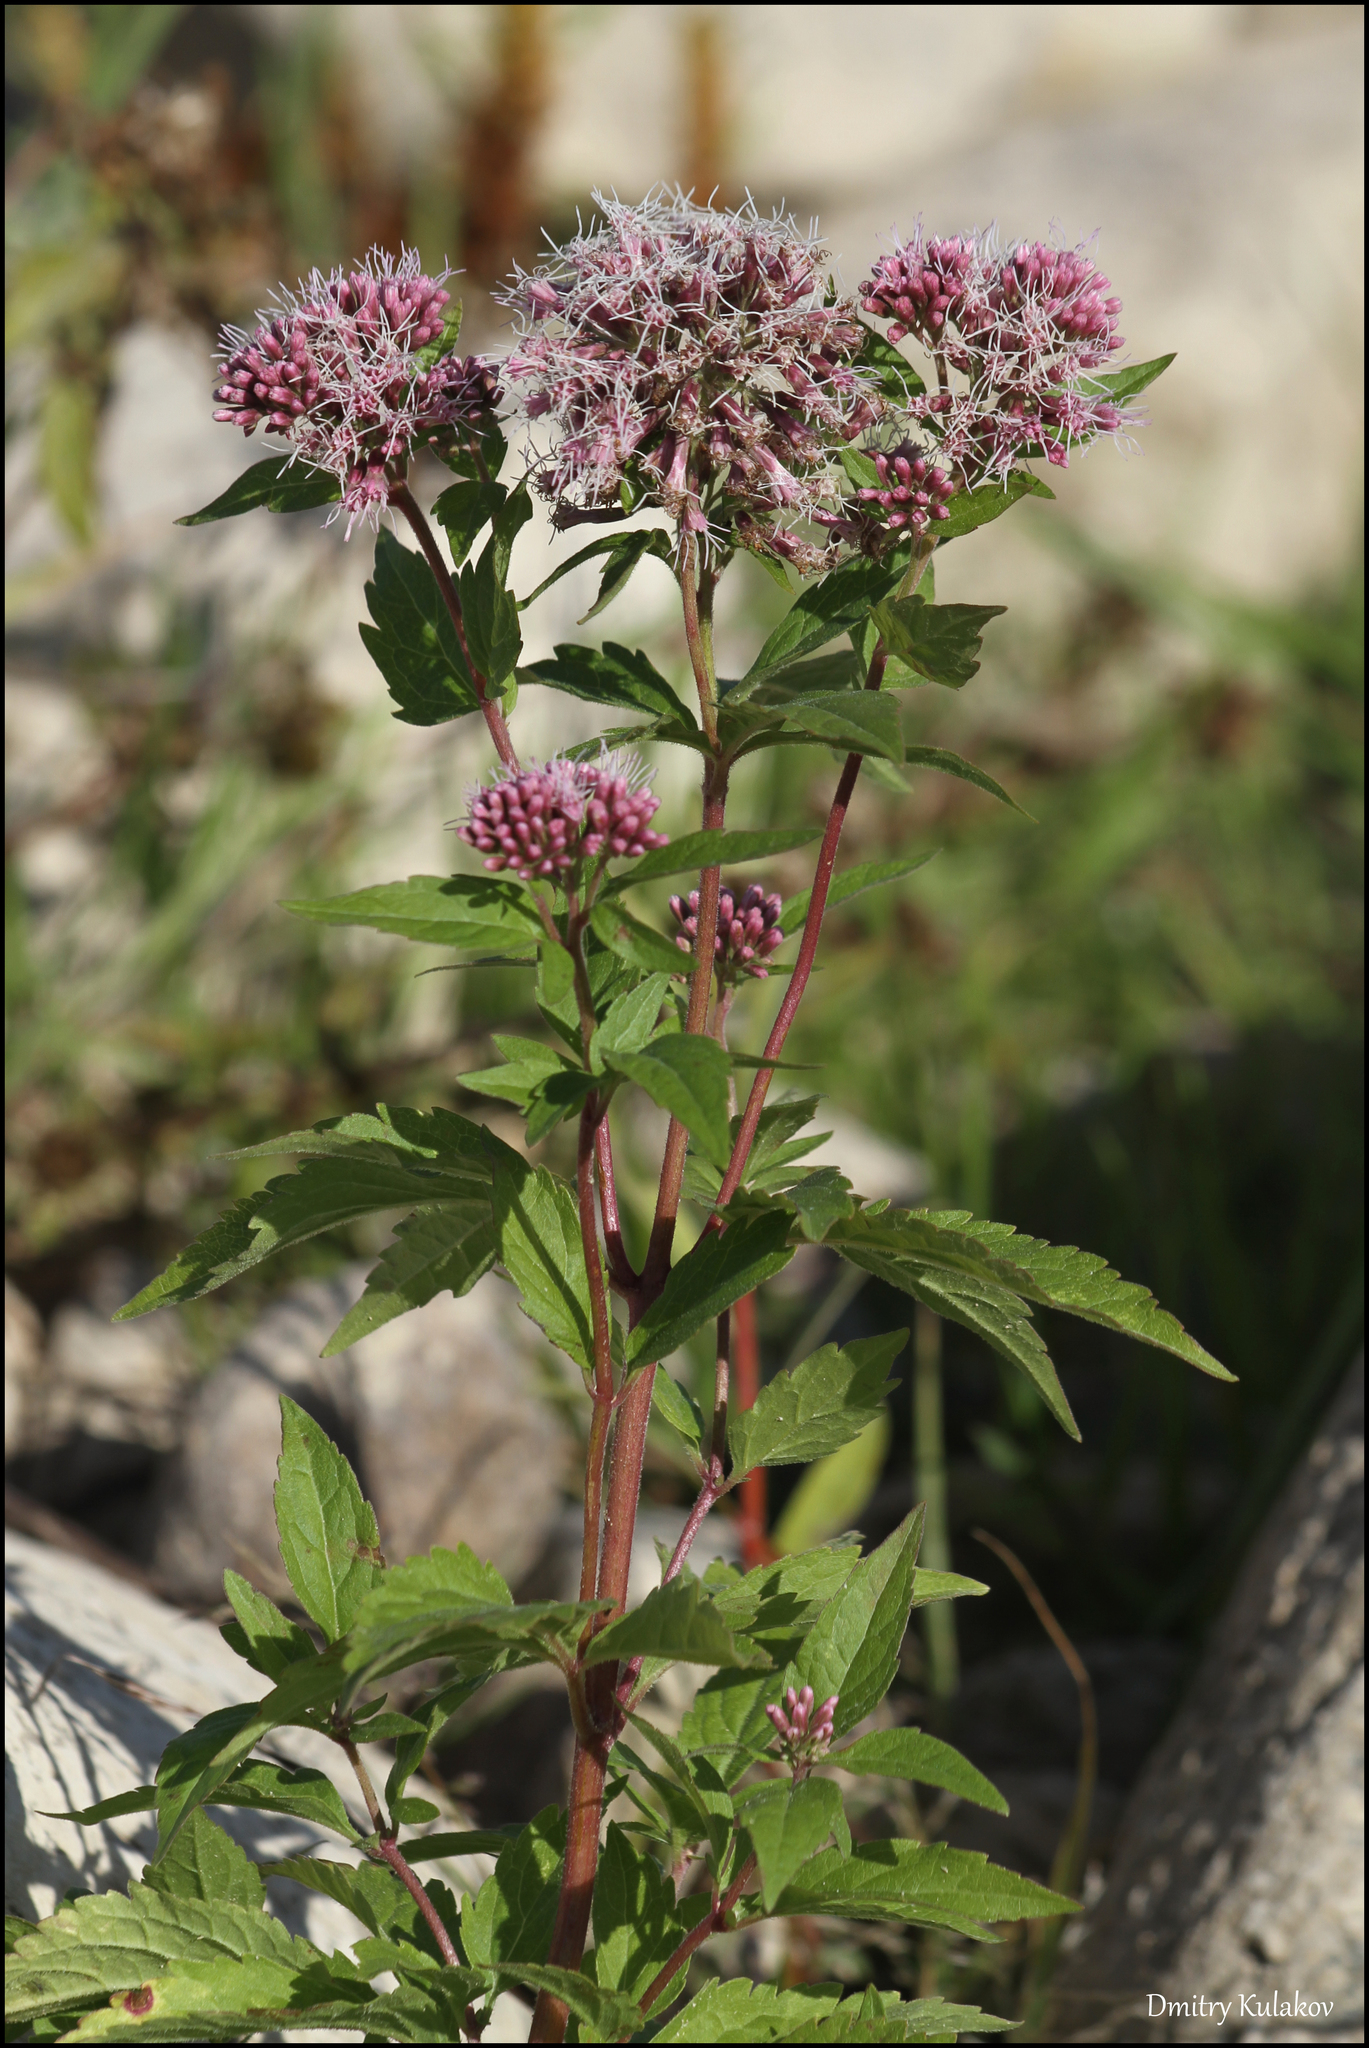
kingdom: Plantae
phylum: Tracheophyta
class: Magnoliopsida
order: Asterales
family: Asteraceae
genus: Eupatorium
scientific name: Eupatorium cannabinum
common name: Hemp-agrimony
